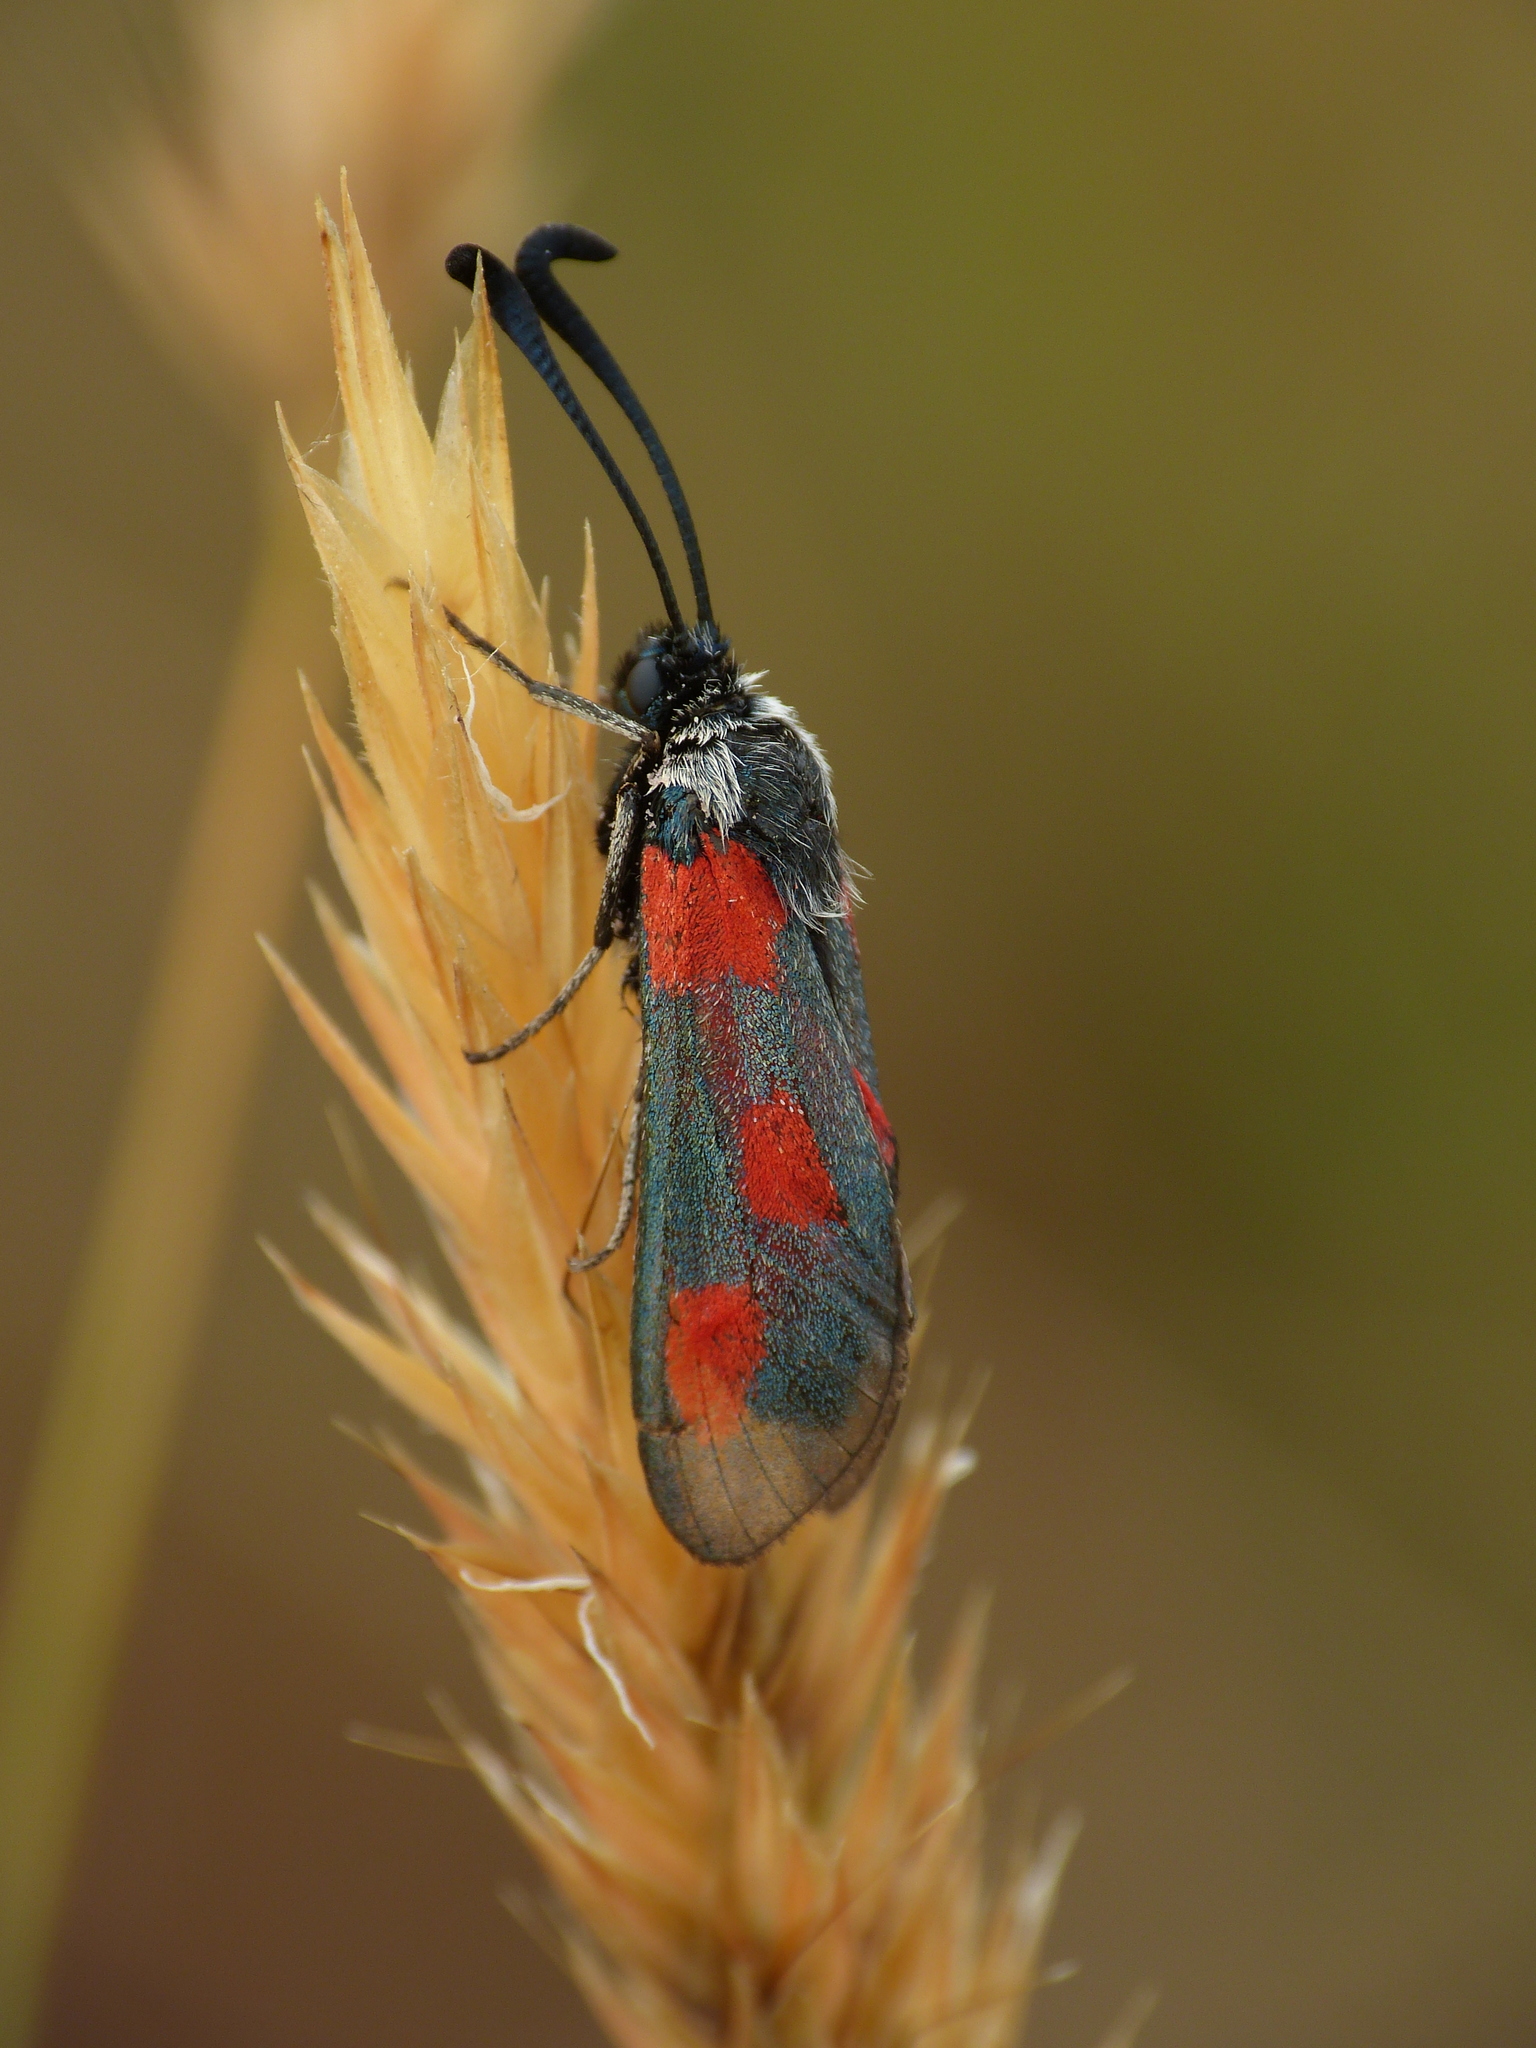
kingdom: Animalia
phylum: Arthropoda
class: Insecta
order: Lepidoptera
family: Zygaenidae
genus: Zygaena
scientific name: Zygaena sarpedon
